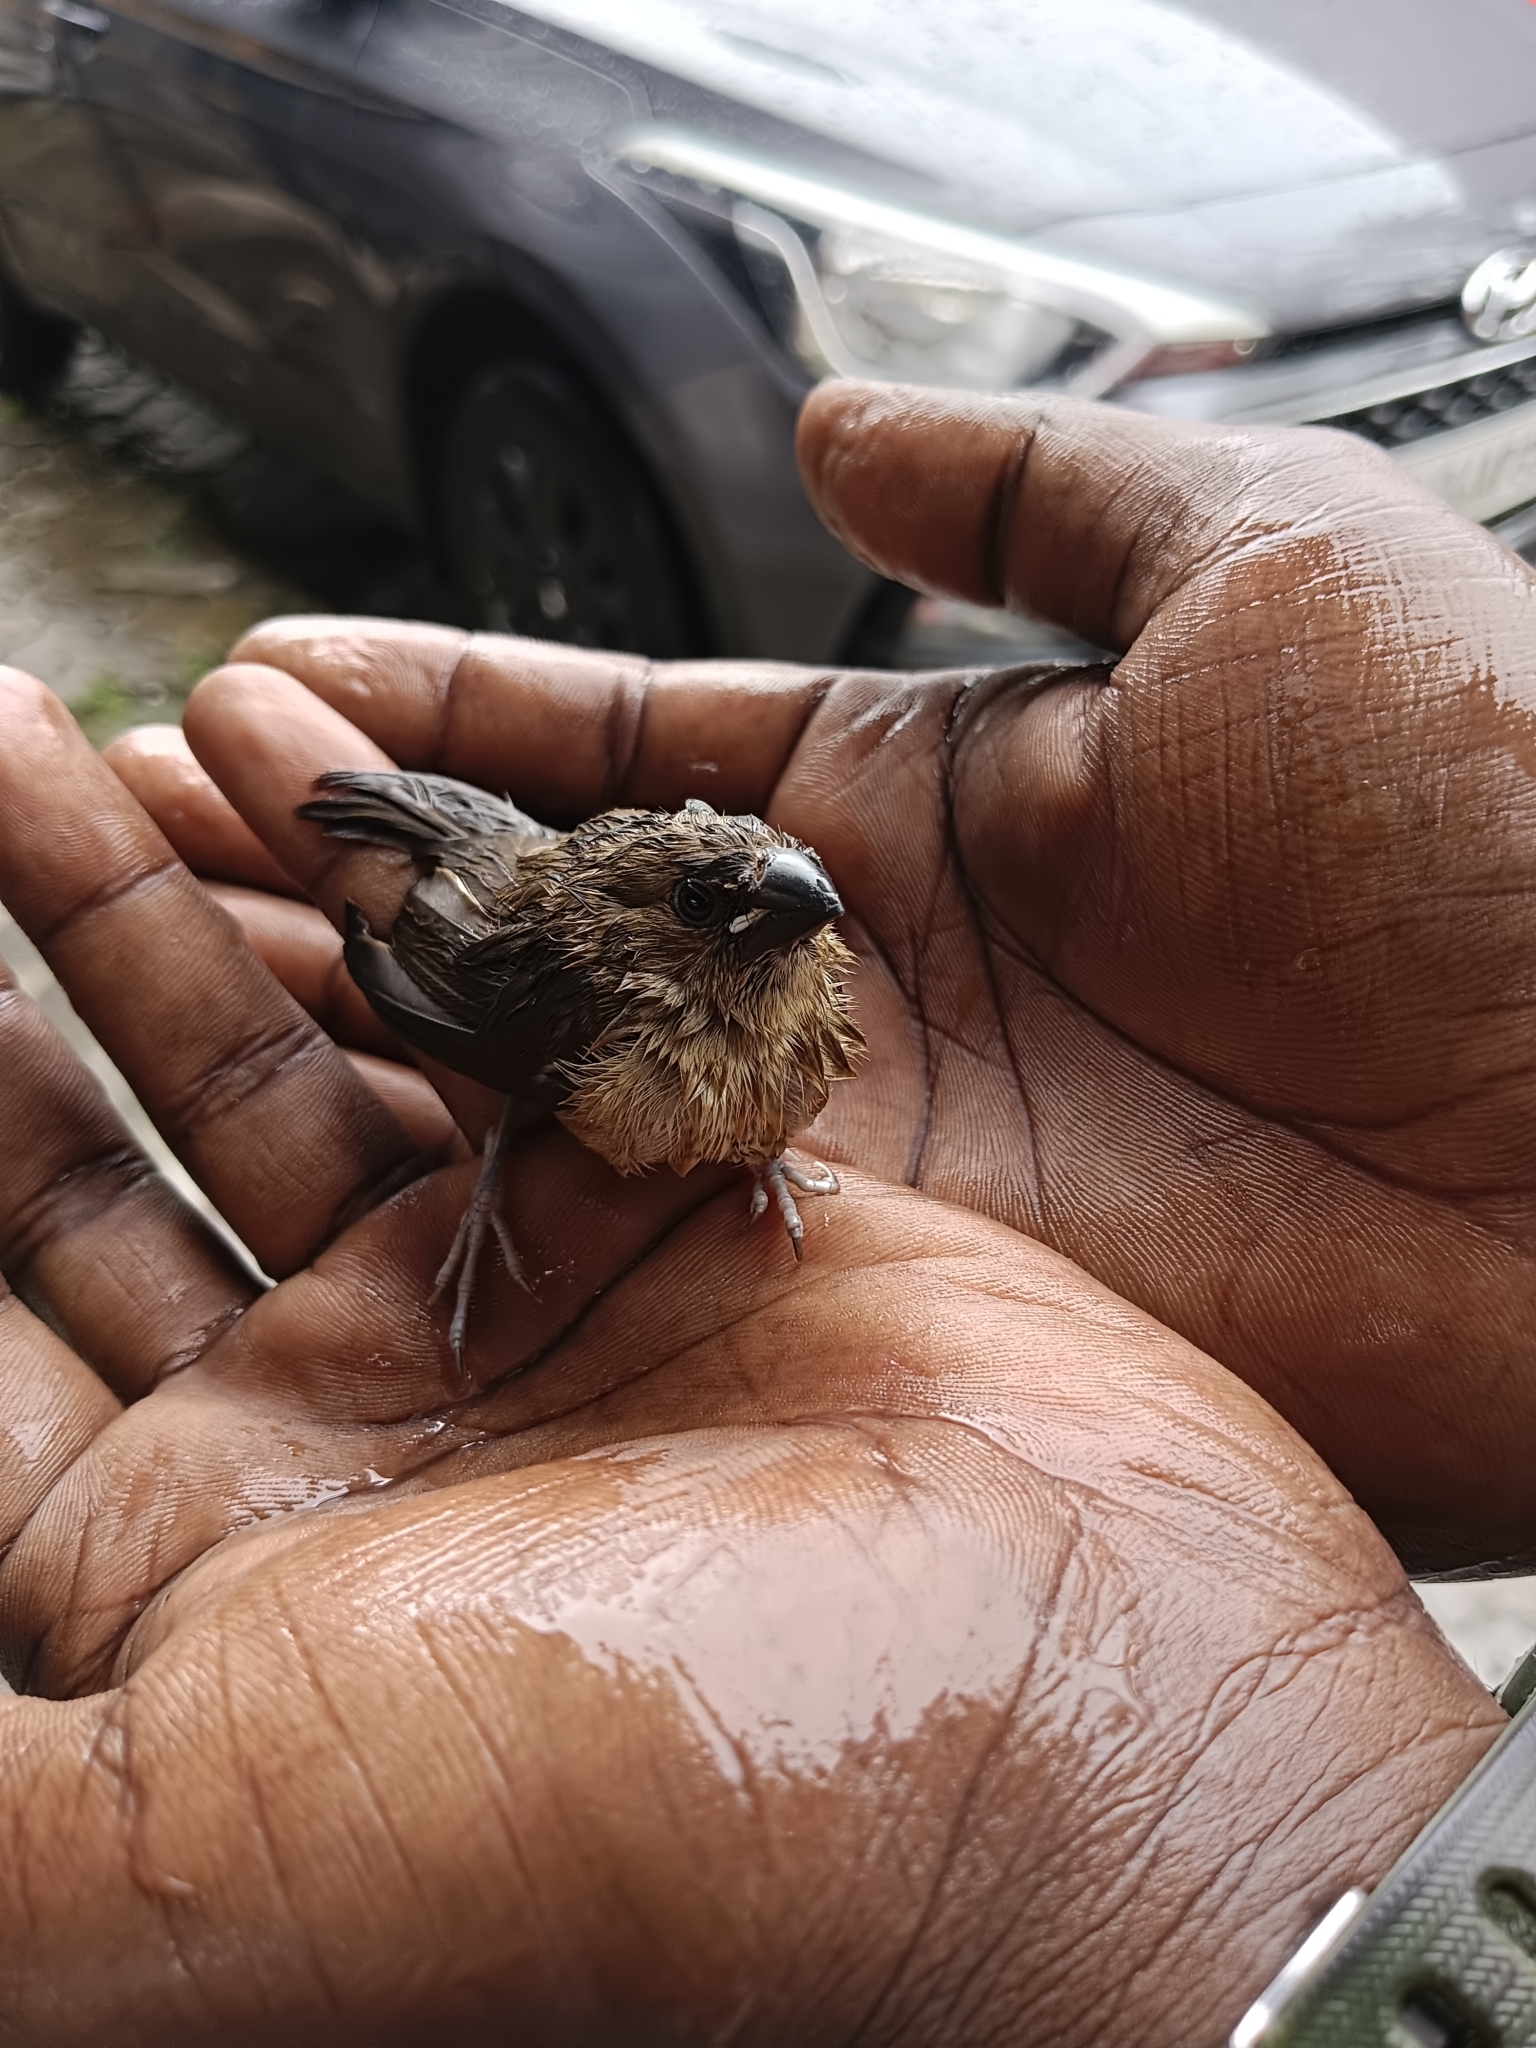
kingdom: Animalia
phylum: Chordata
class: Aves
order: Passeriformes
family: Estrildidae
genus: Lonchura
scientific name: Lonchura striata
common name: White-rumped munia
